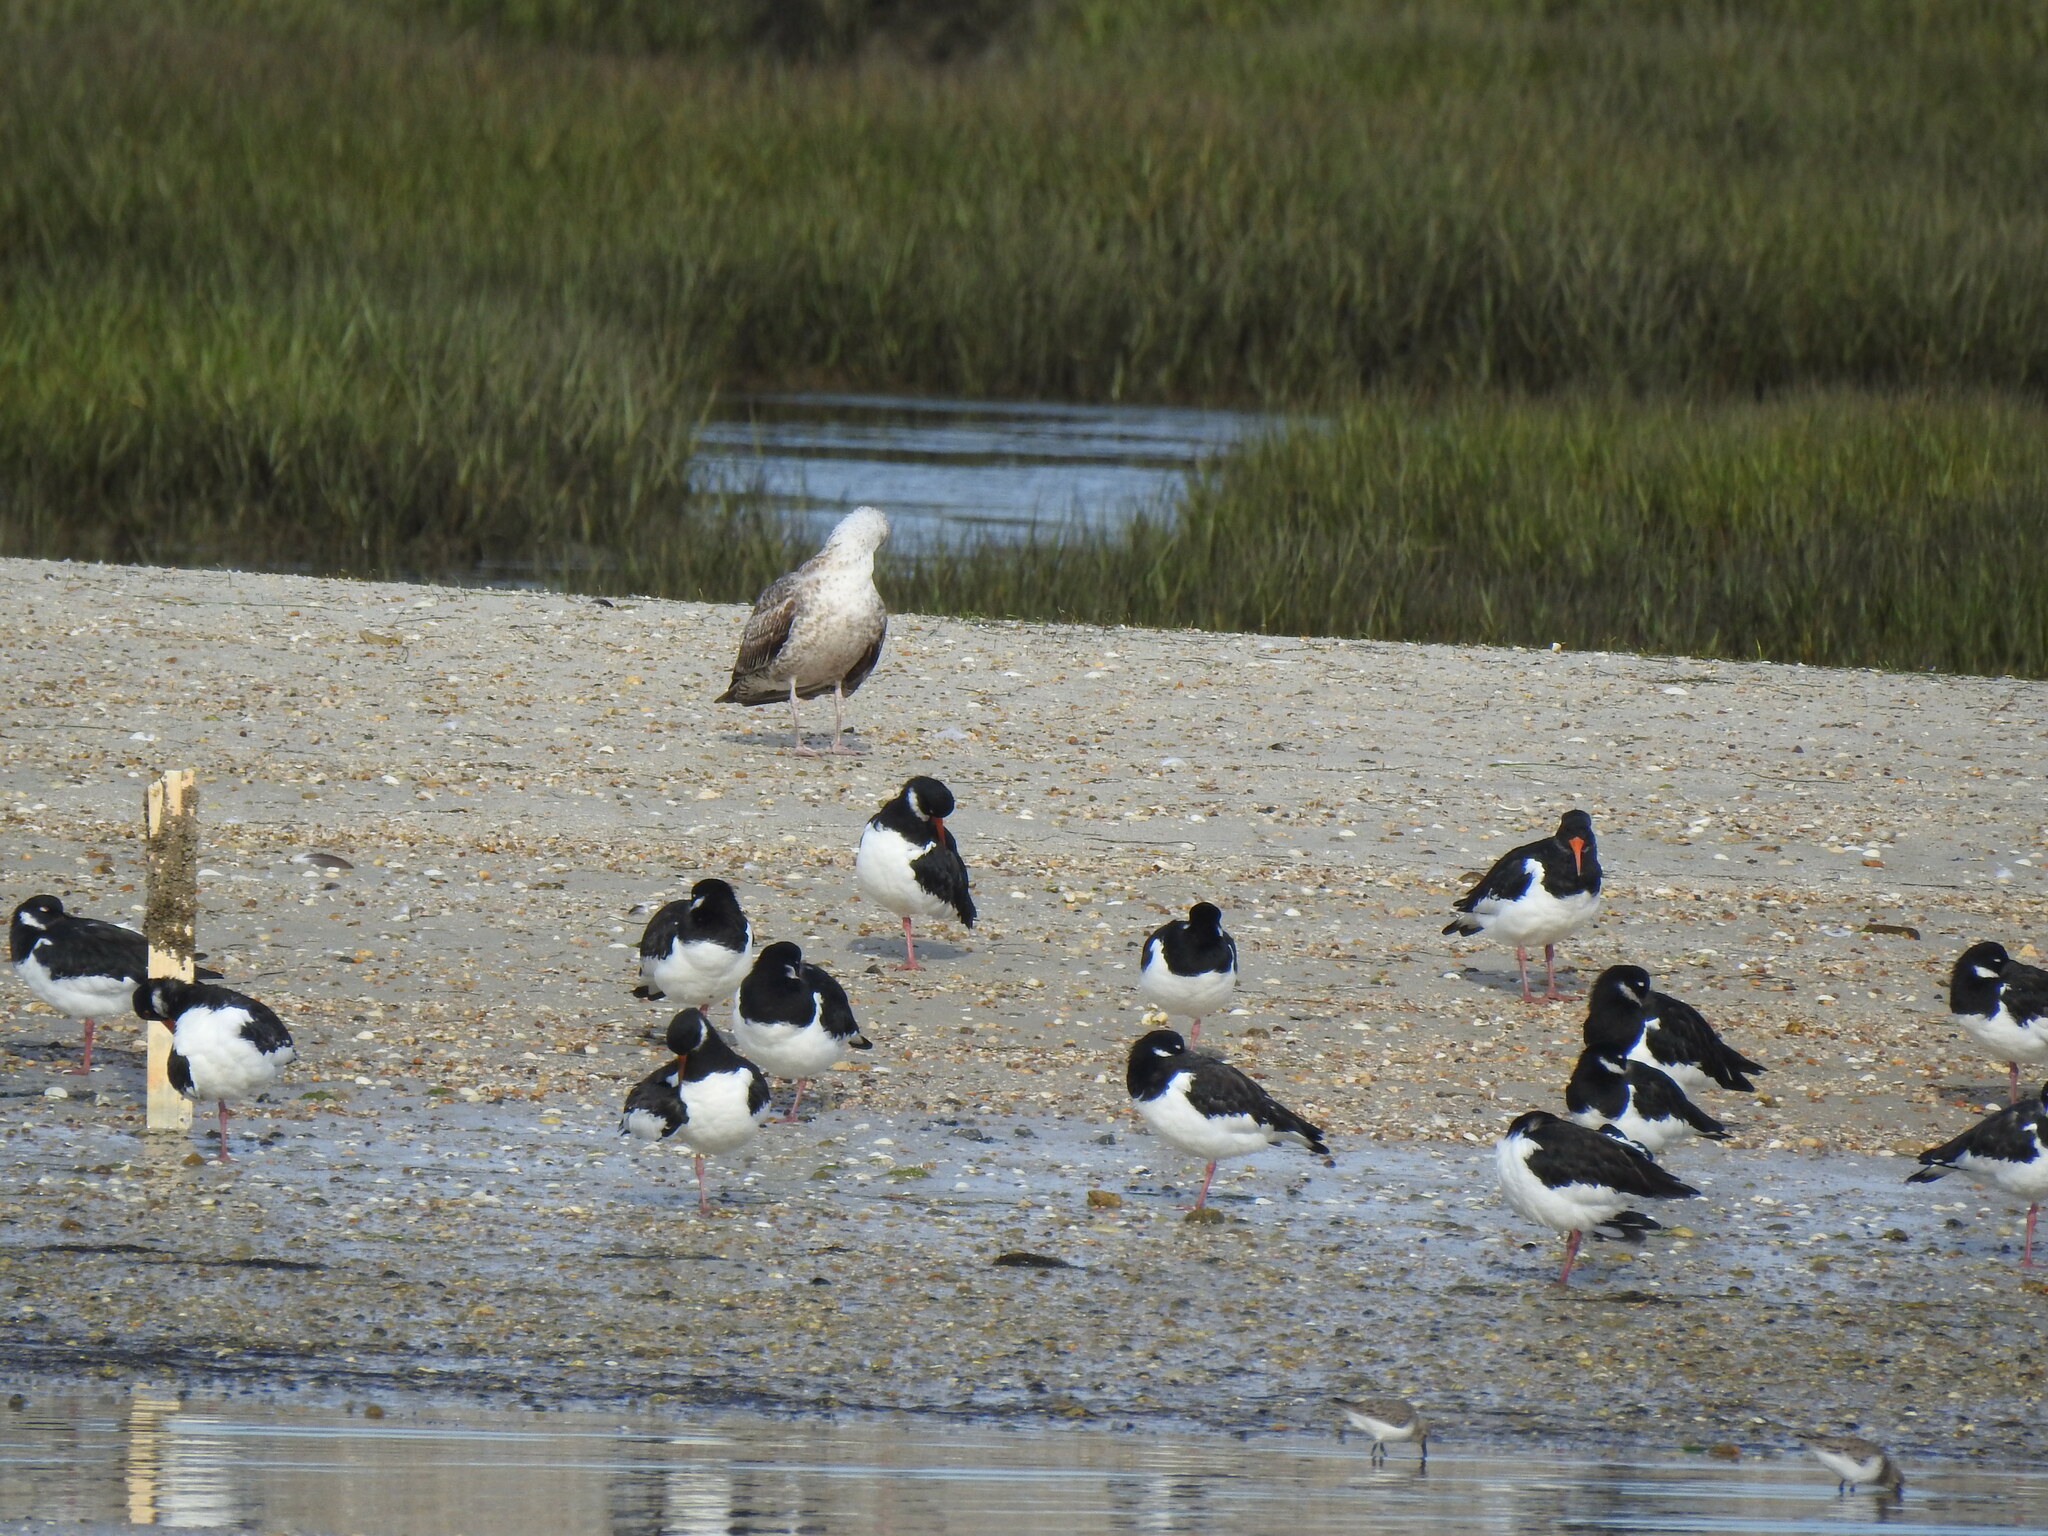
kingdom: Animalia
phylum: Chordata
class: Aves
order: Charadriiformes
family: Haematopodidae
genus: Haematopus
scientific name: Haematopus ostralegus
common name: Eurasian oystercatcher
